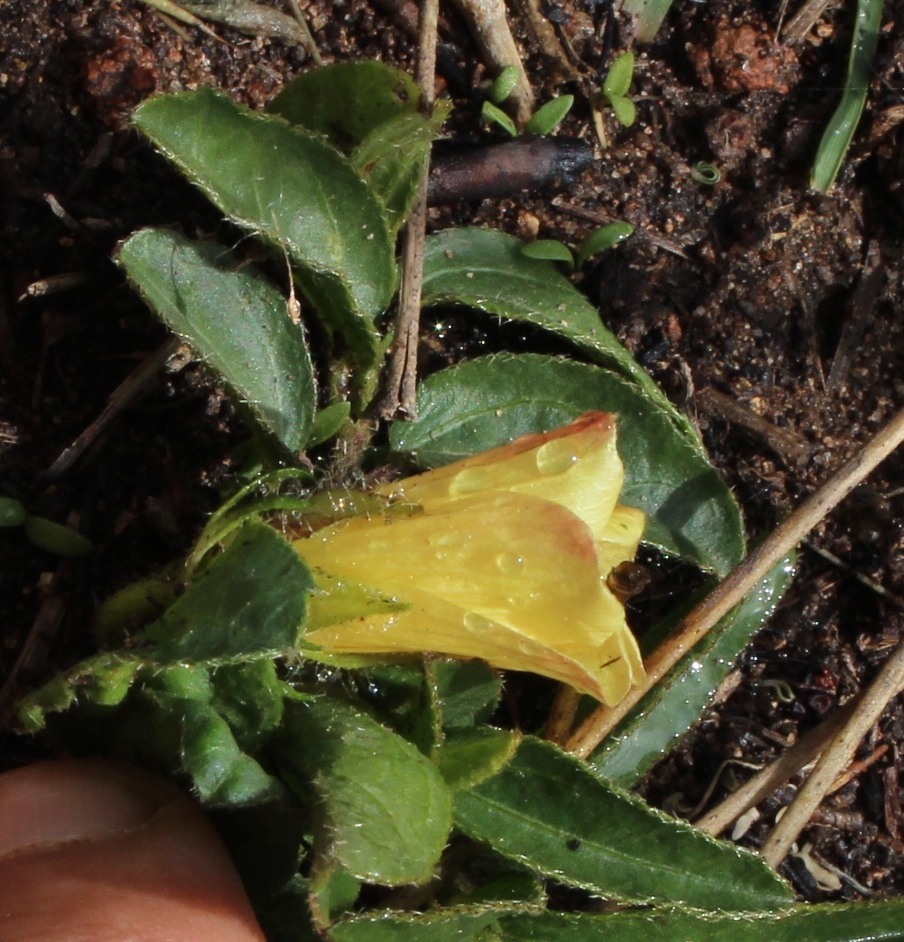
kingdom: Plantae
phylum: Tracheophyta
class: Magnoliopsida
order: Malvales
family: Malvaceae
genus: Hibiscus
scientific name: Hibiscus aethiopicus
